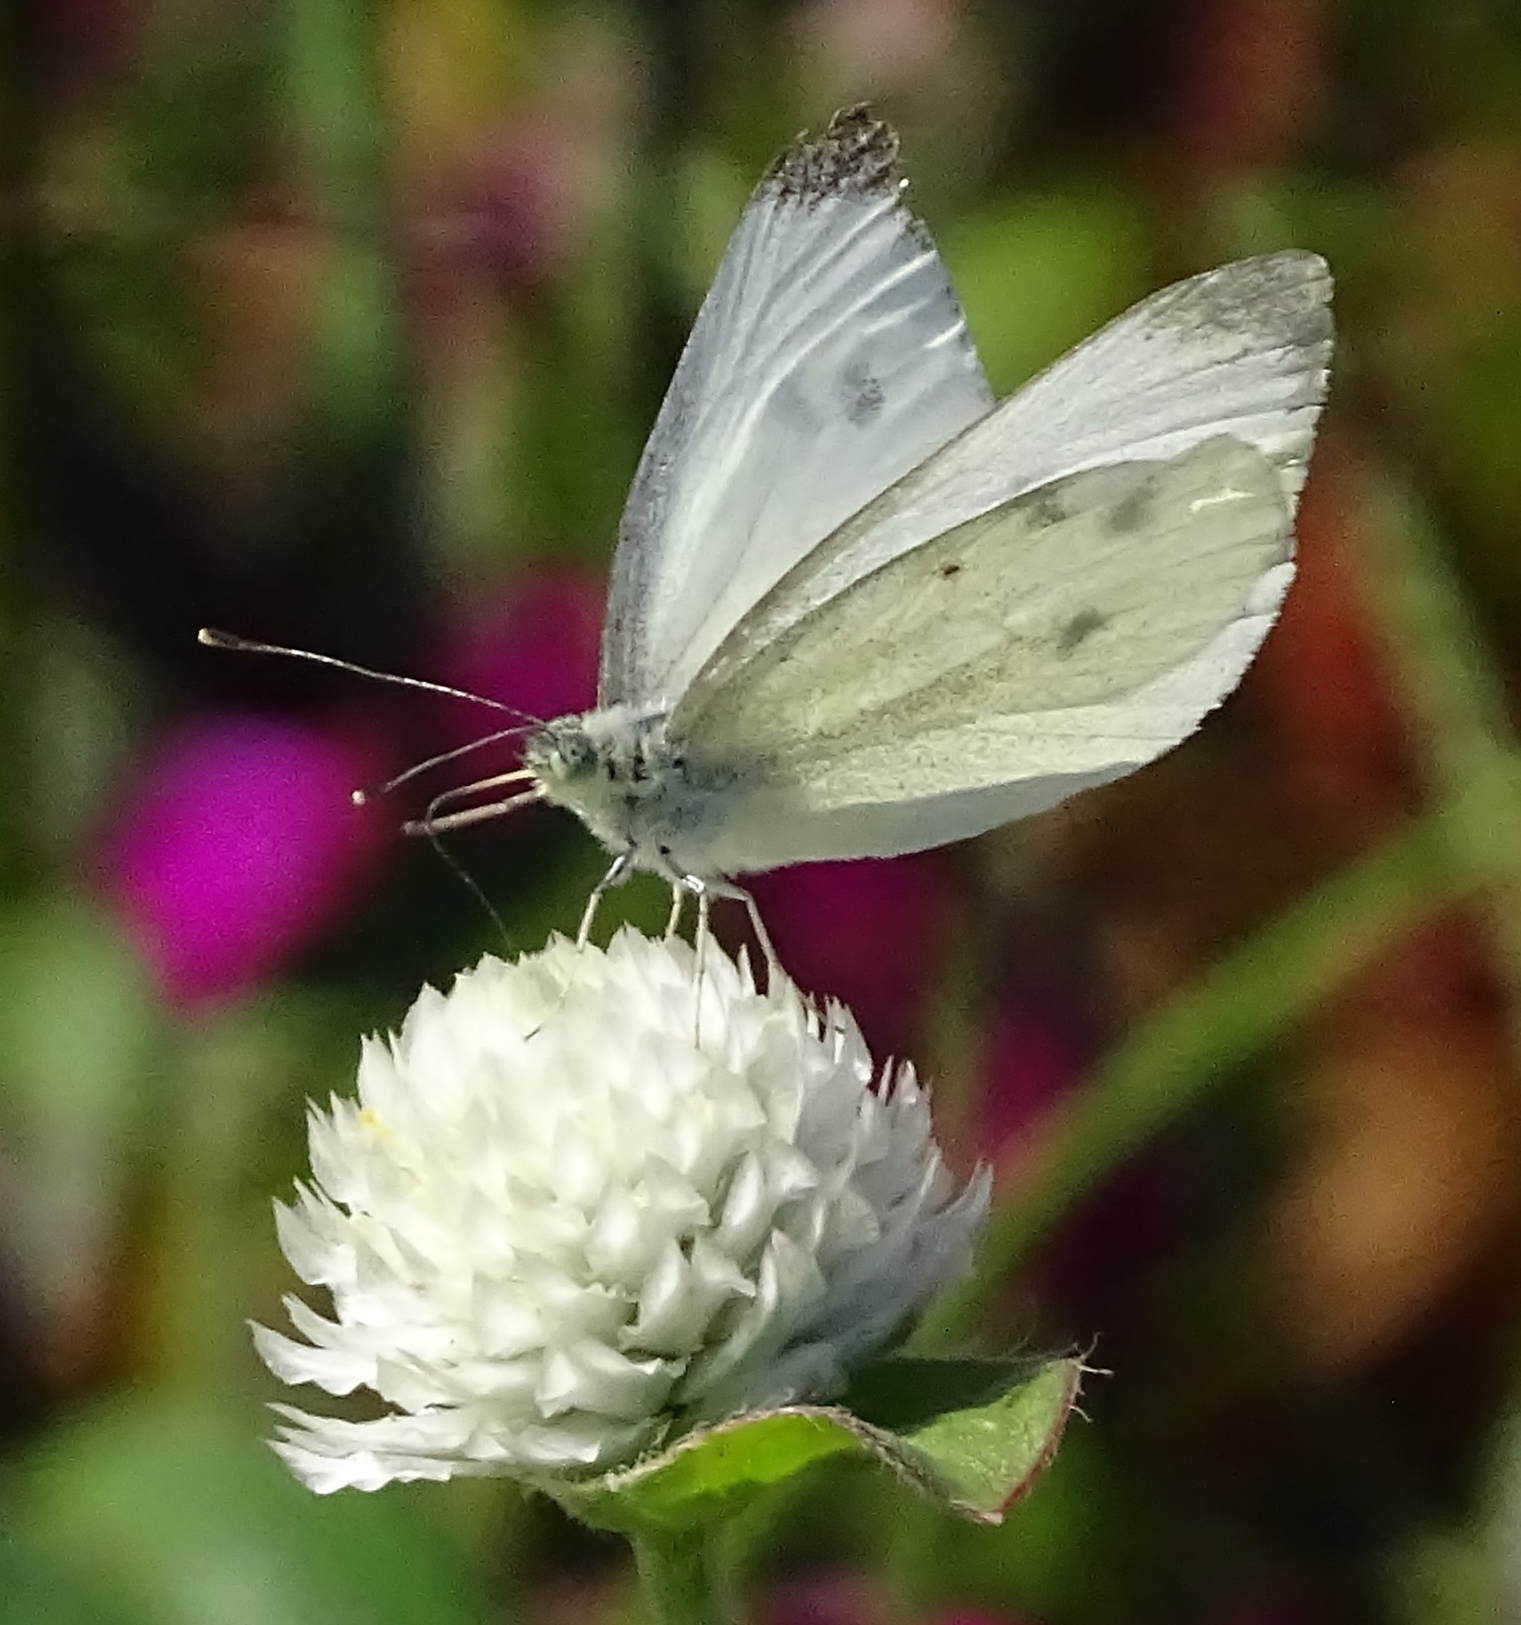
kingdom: Animalia
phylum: Arthropoda
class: Insecta
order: Lepidoptera
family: Pieridae
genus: Pieris
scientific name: Pieris rapae
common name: Small white
